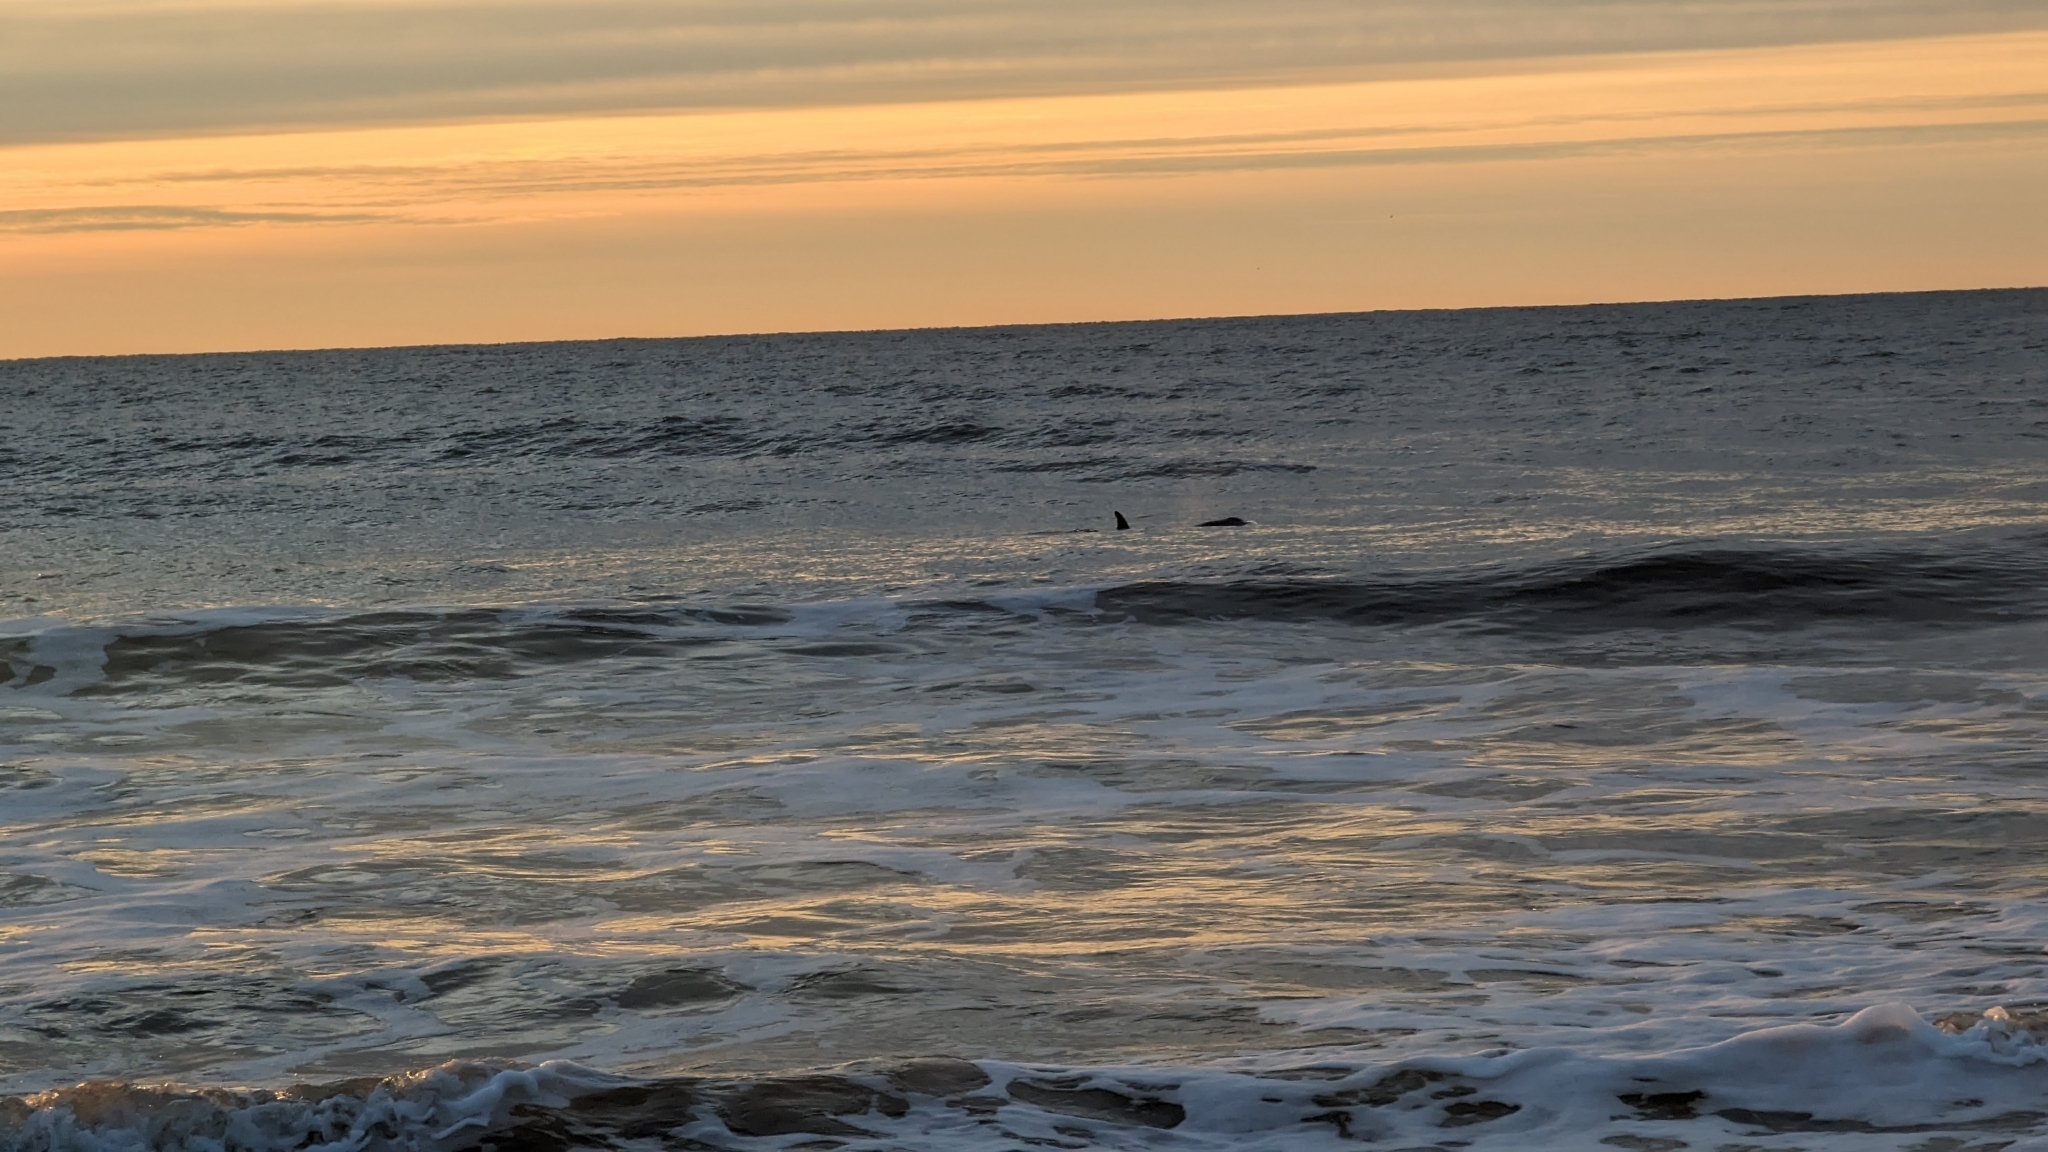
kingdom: Animalia
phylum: Chordata
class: Mammalia
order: Cetacea
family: Delphinidae
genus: Tursiops
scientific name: Tursiops truncatus
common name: Bottlenose dolphin
